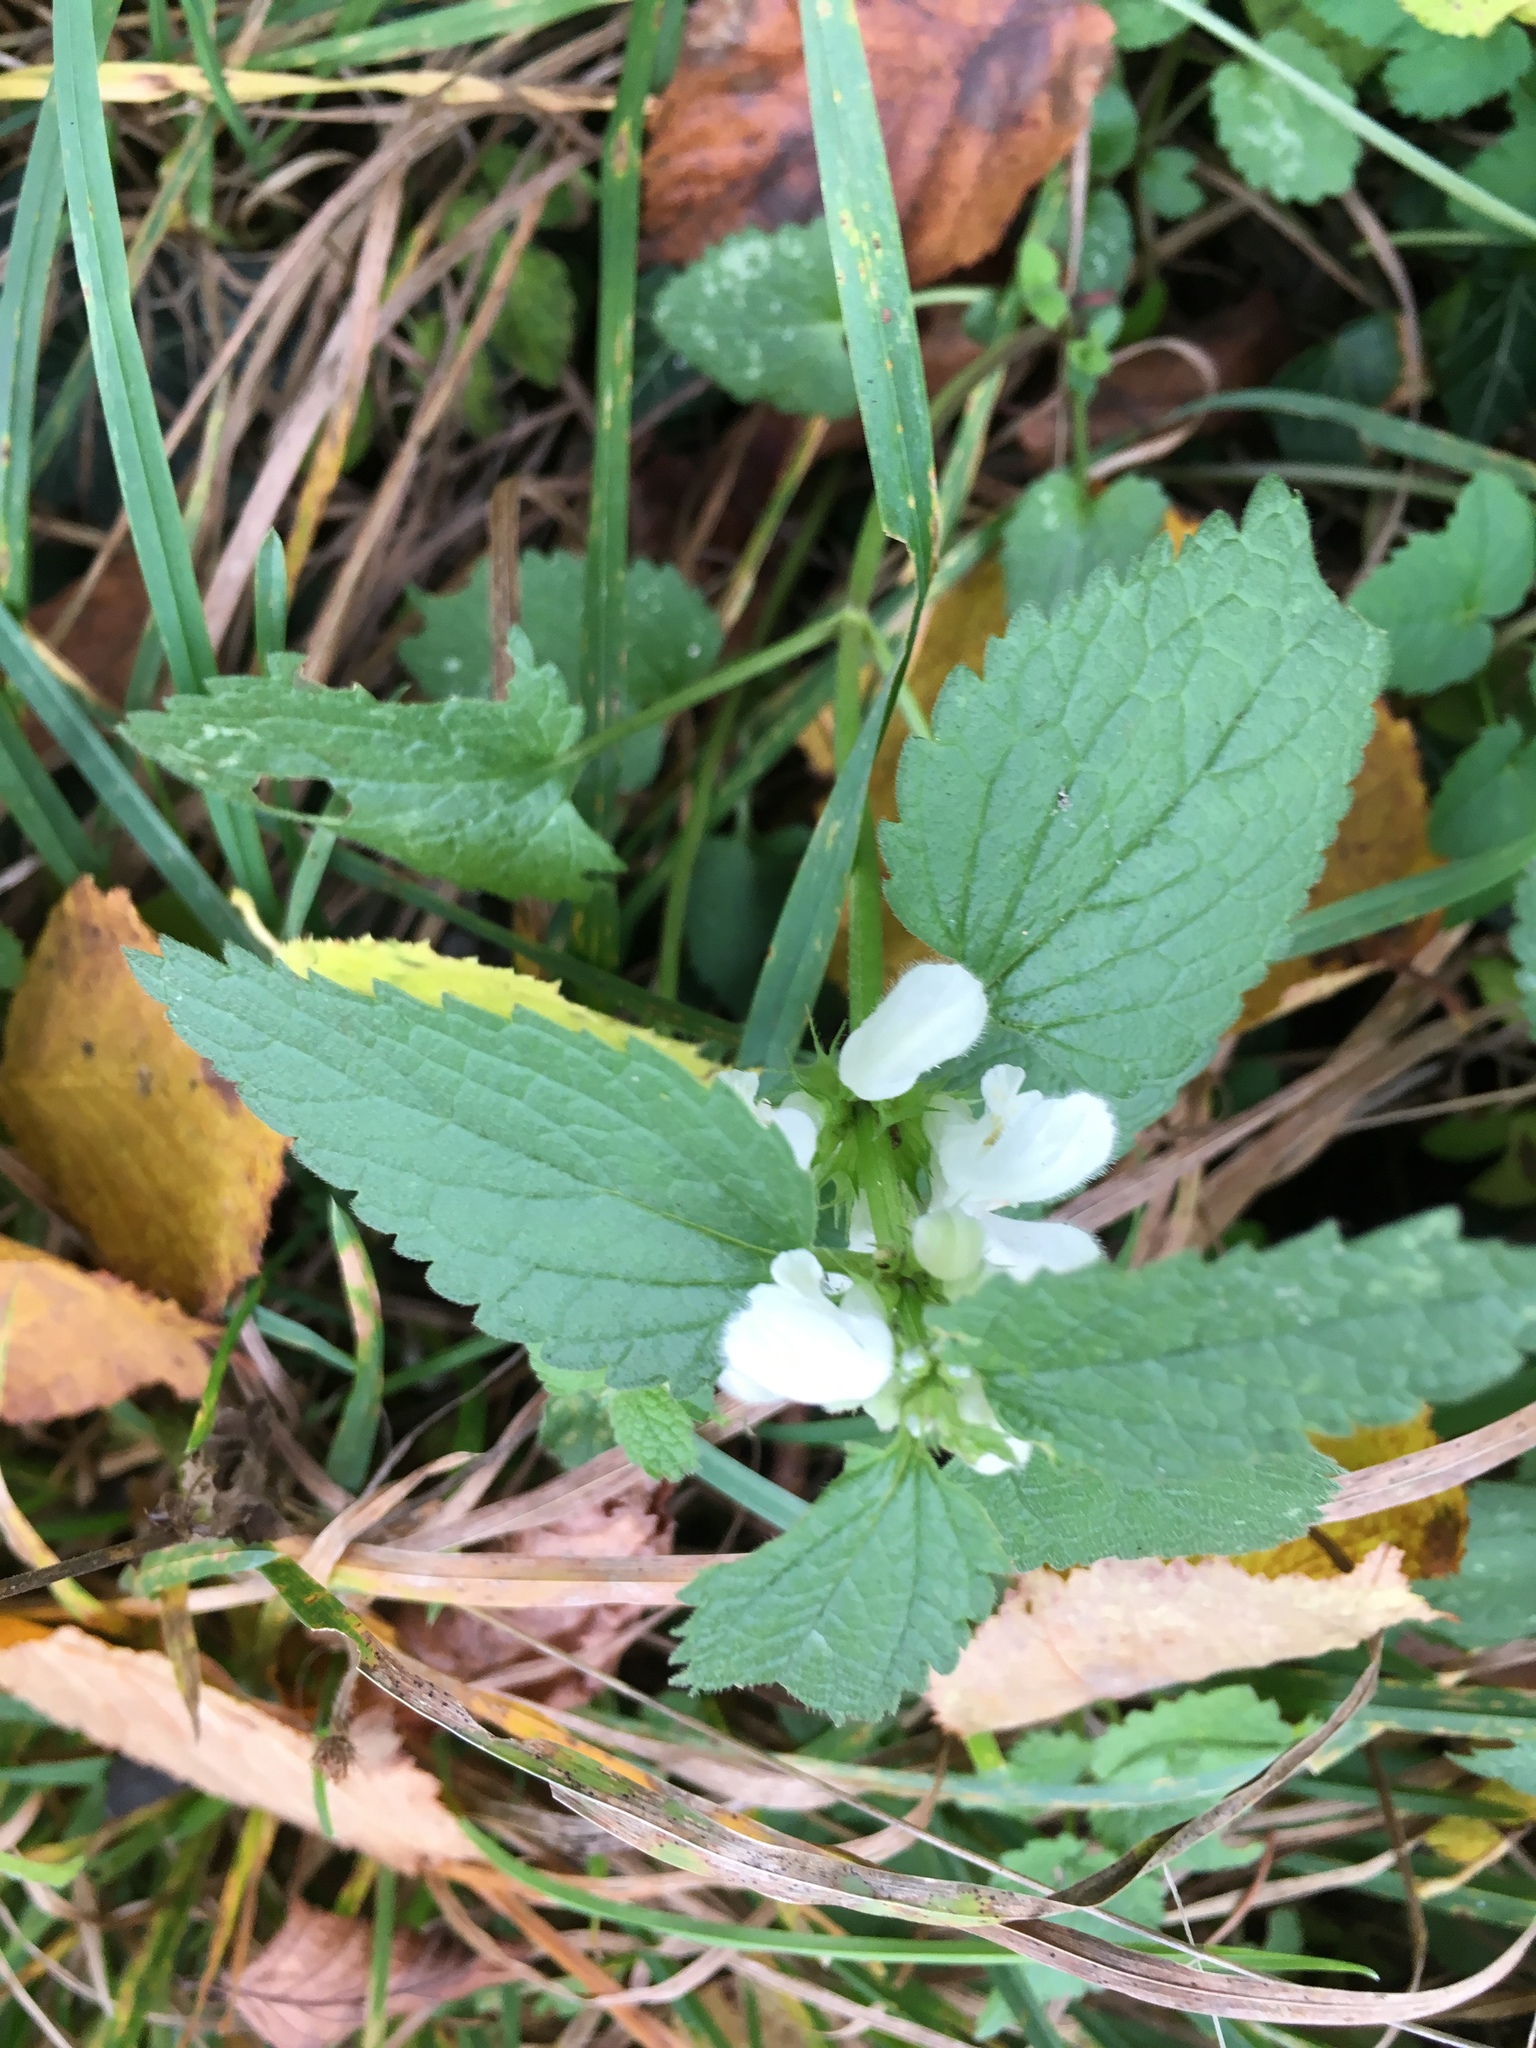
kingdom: Plantae
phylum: Tracheophyta
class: Magnoliopsida
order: Lamiales
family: Lamiaceae
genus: Lamium
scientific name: Lamium album
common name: White dead-nettle
